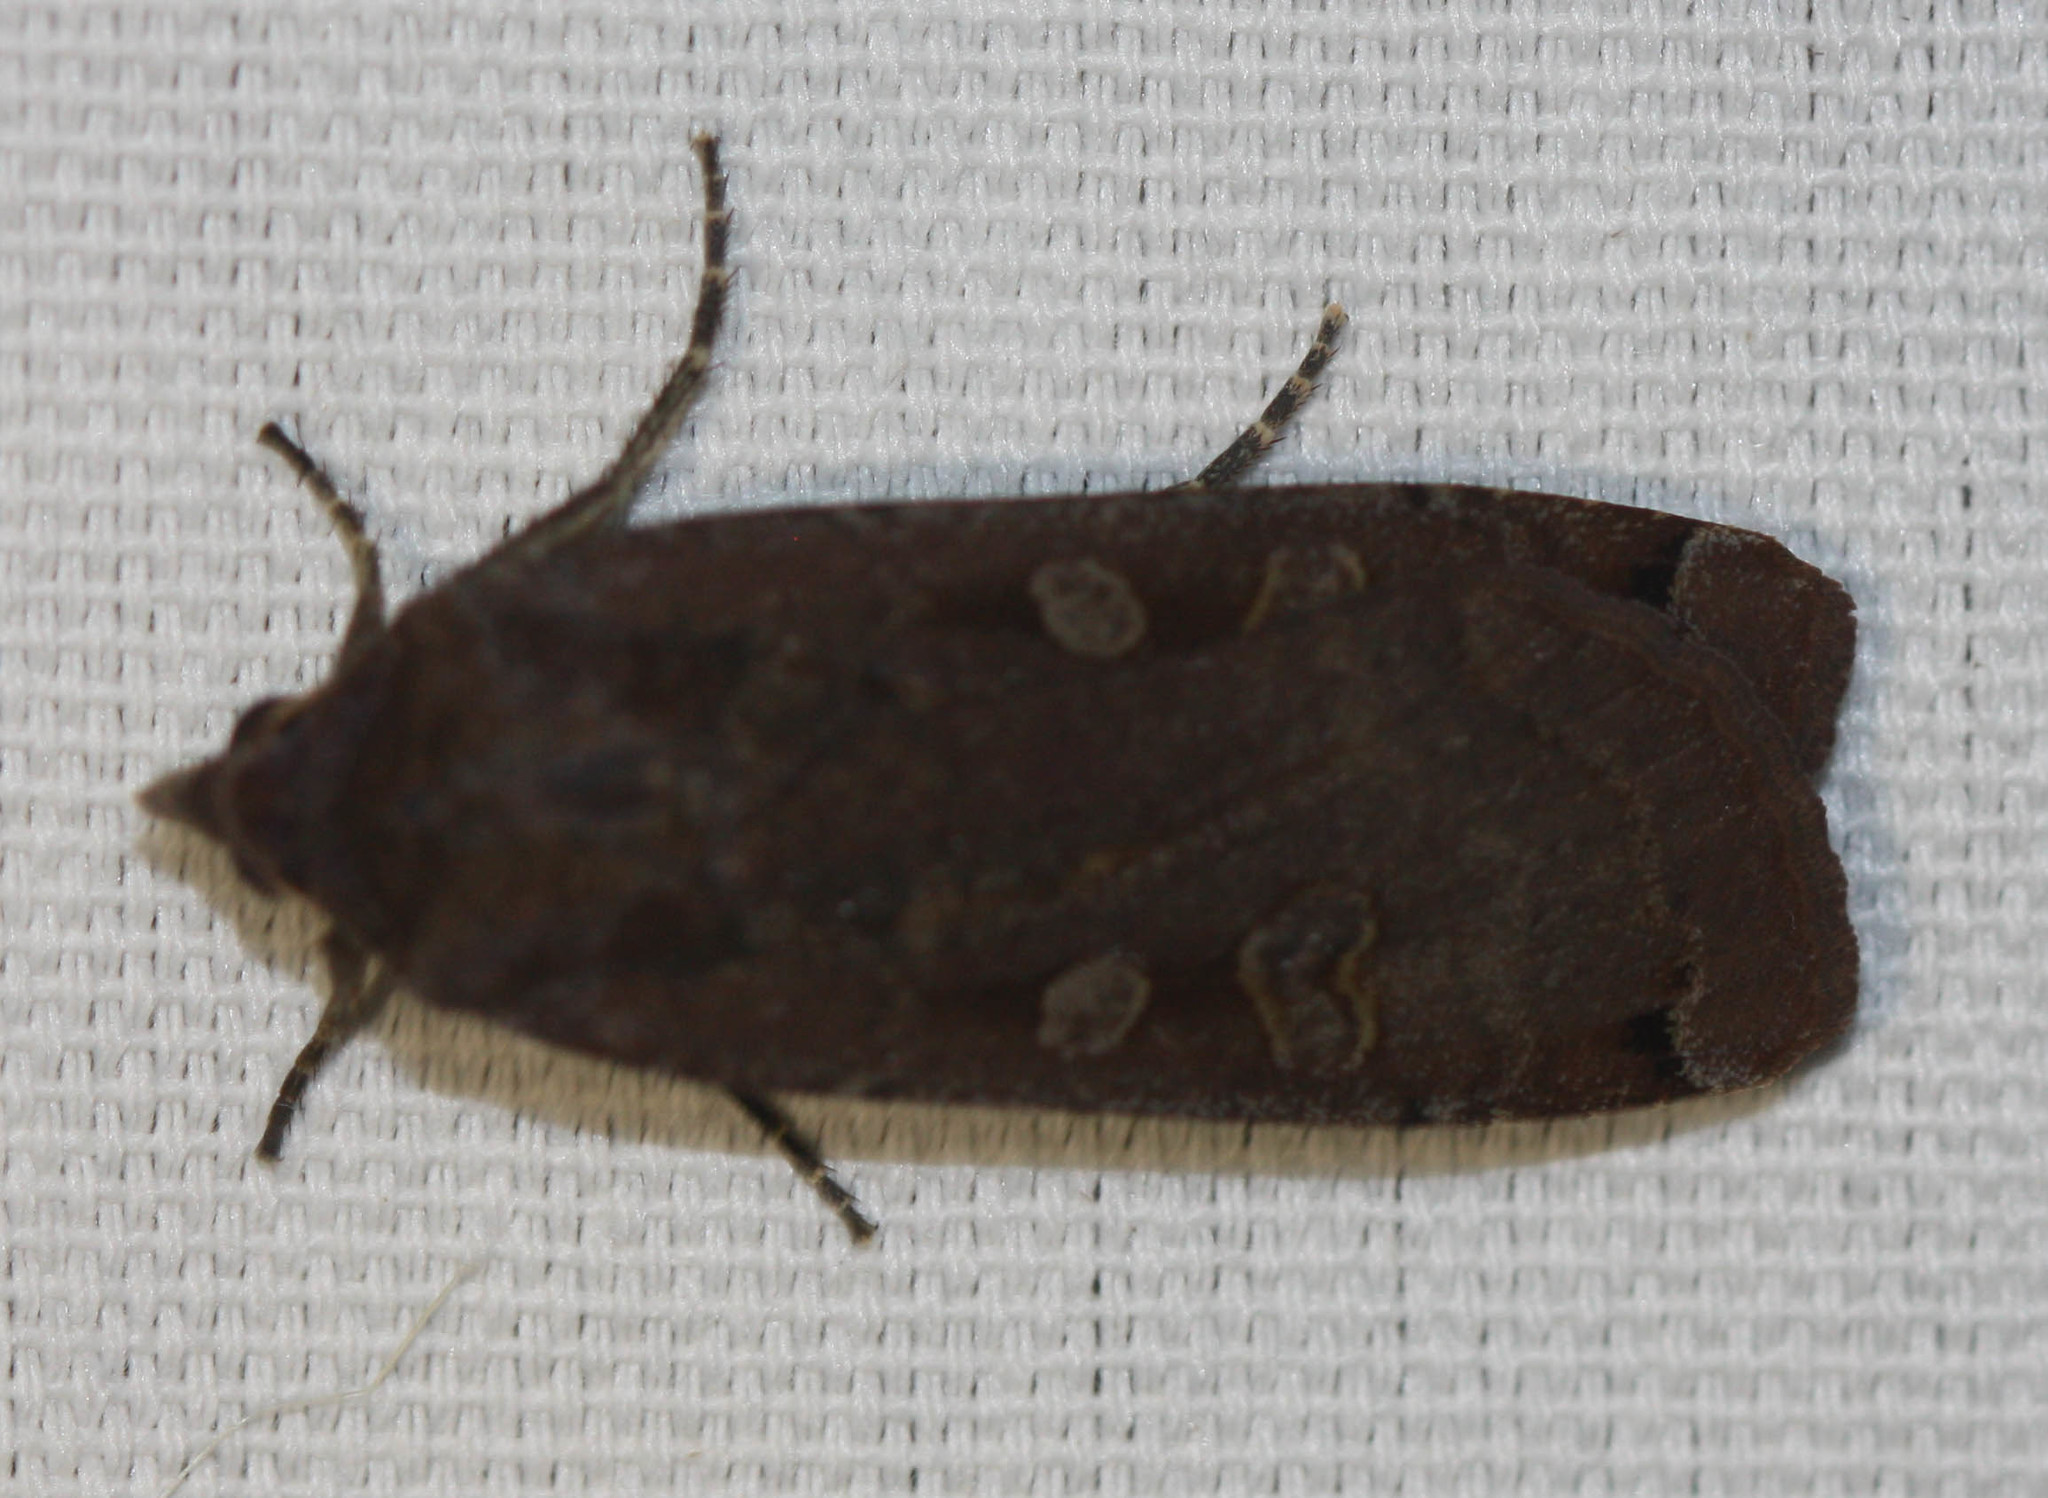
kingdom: Animalia
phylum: Arthropoda
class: Insecta
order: Lepidoptera
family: Noctuidae
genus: Noctua
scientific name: Noctua pronuba
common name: Large yellow underwing
